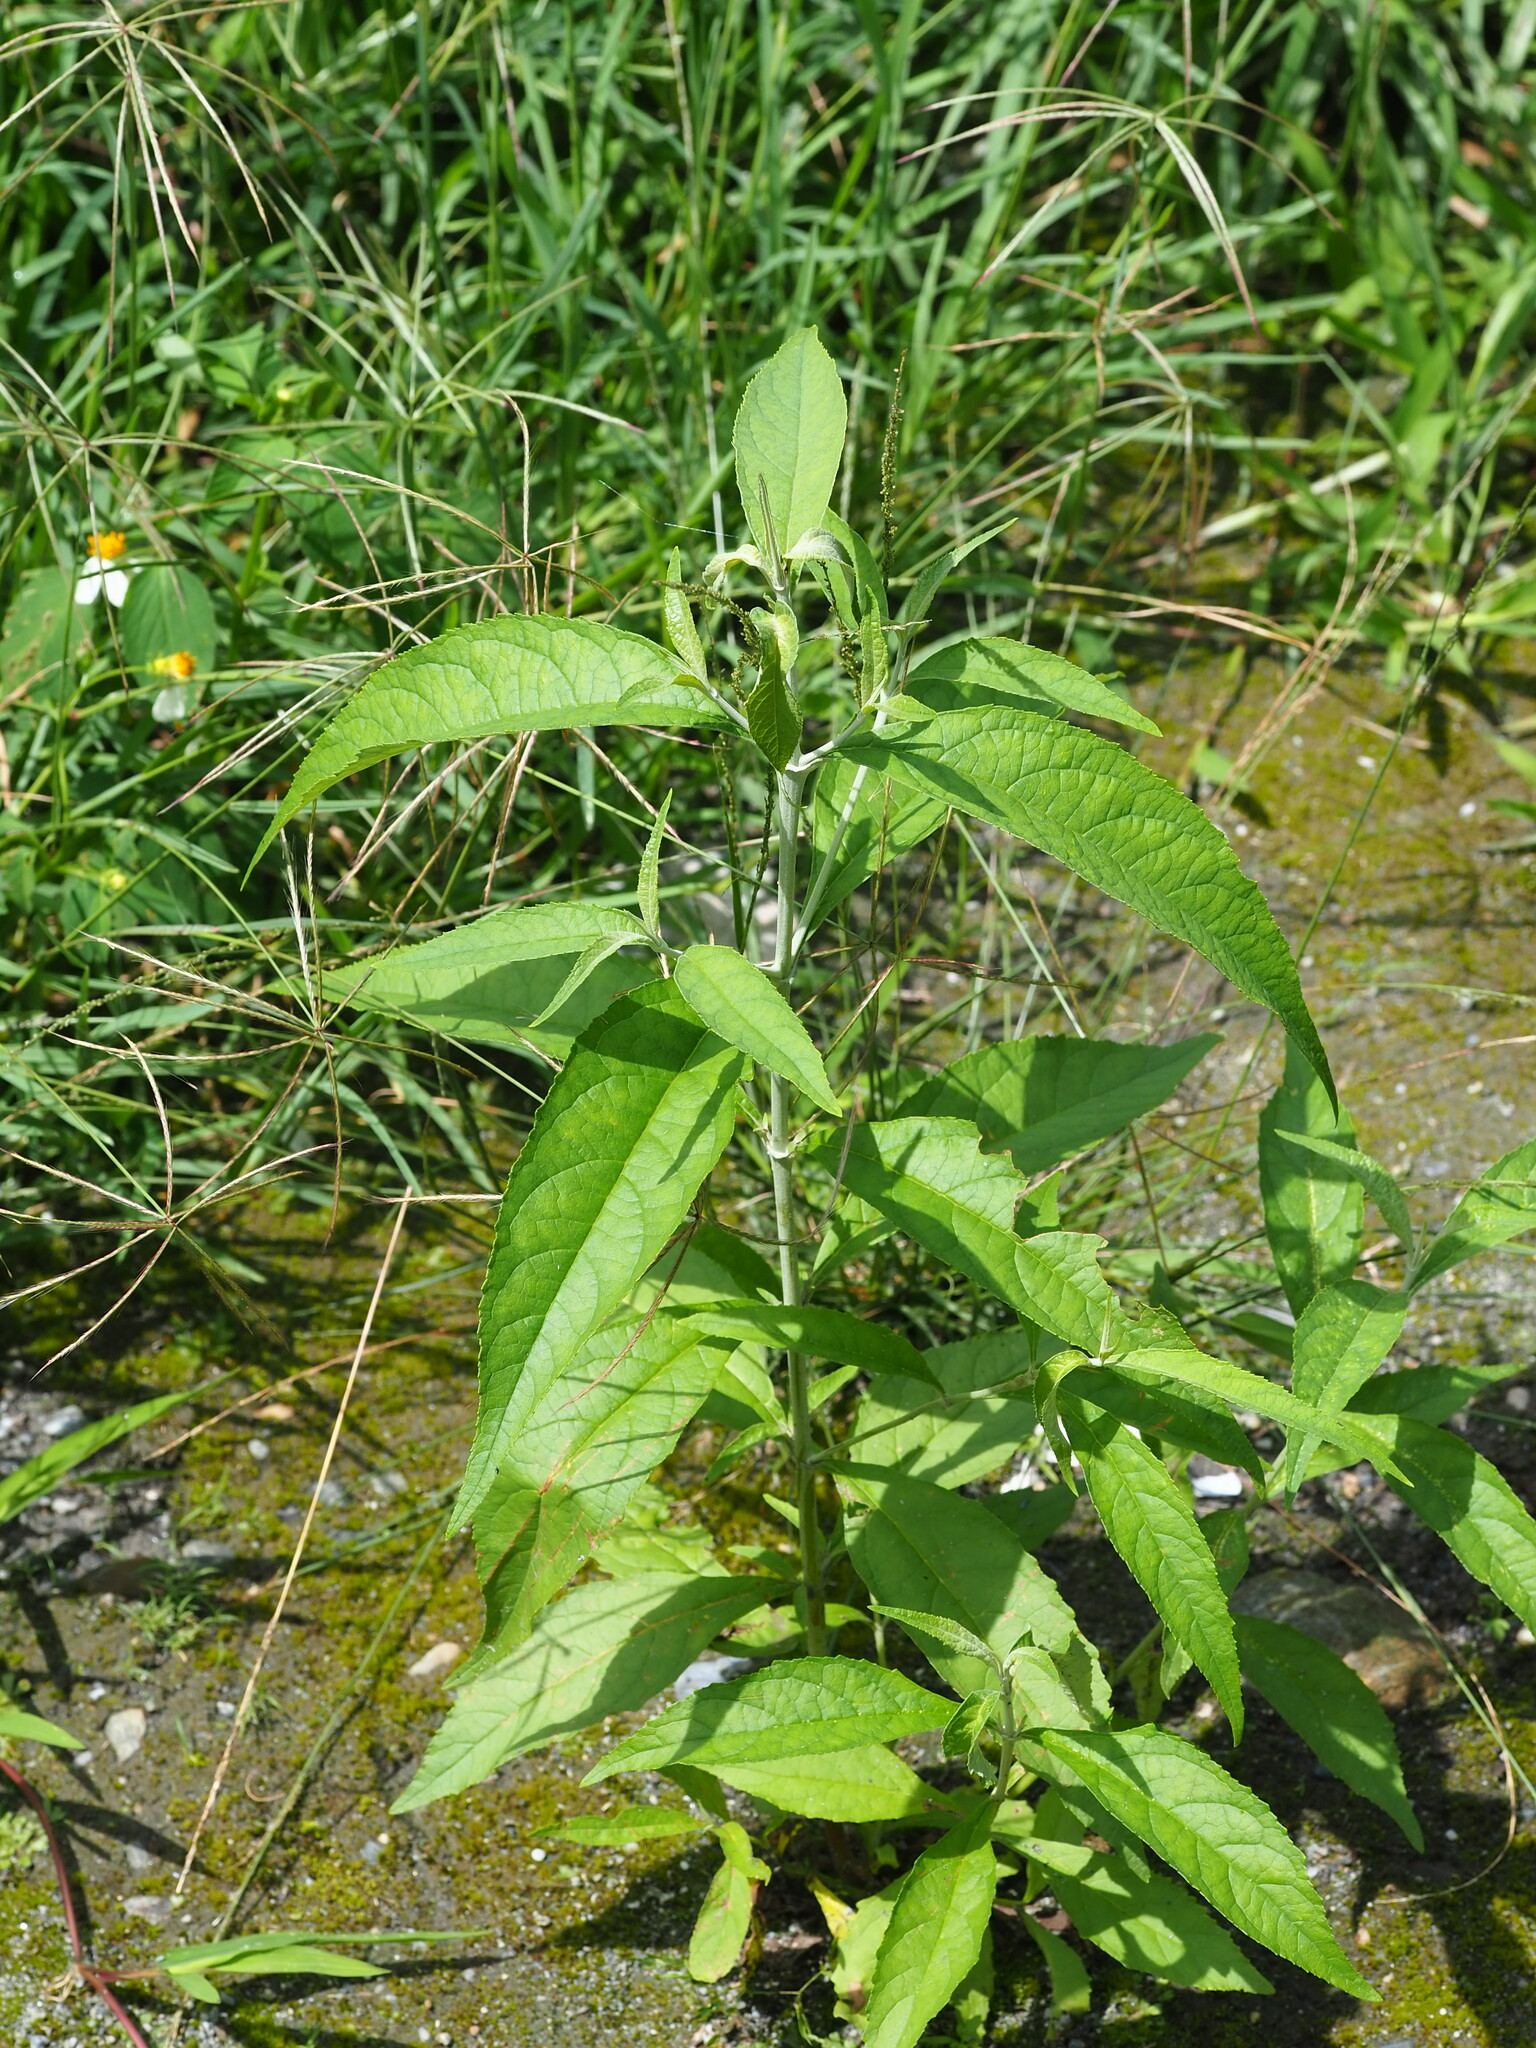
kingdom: Plantae
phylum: Tracheophyta
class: Magnoliopsida
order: Lamiales
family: Scrophulariaceae
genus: Buddleja
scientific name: Buddleja asiatica
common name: Dog tail
